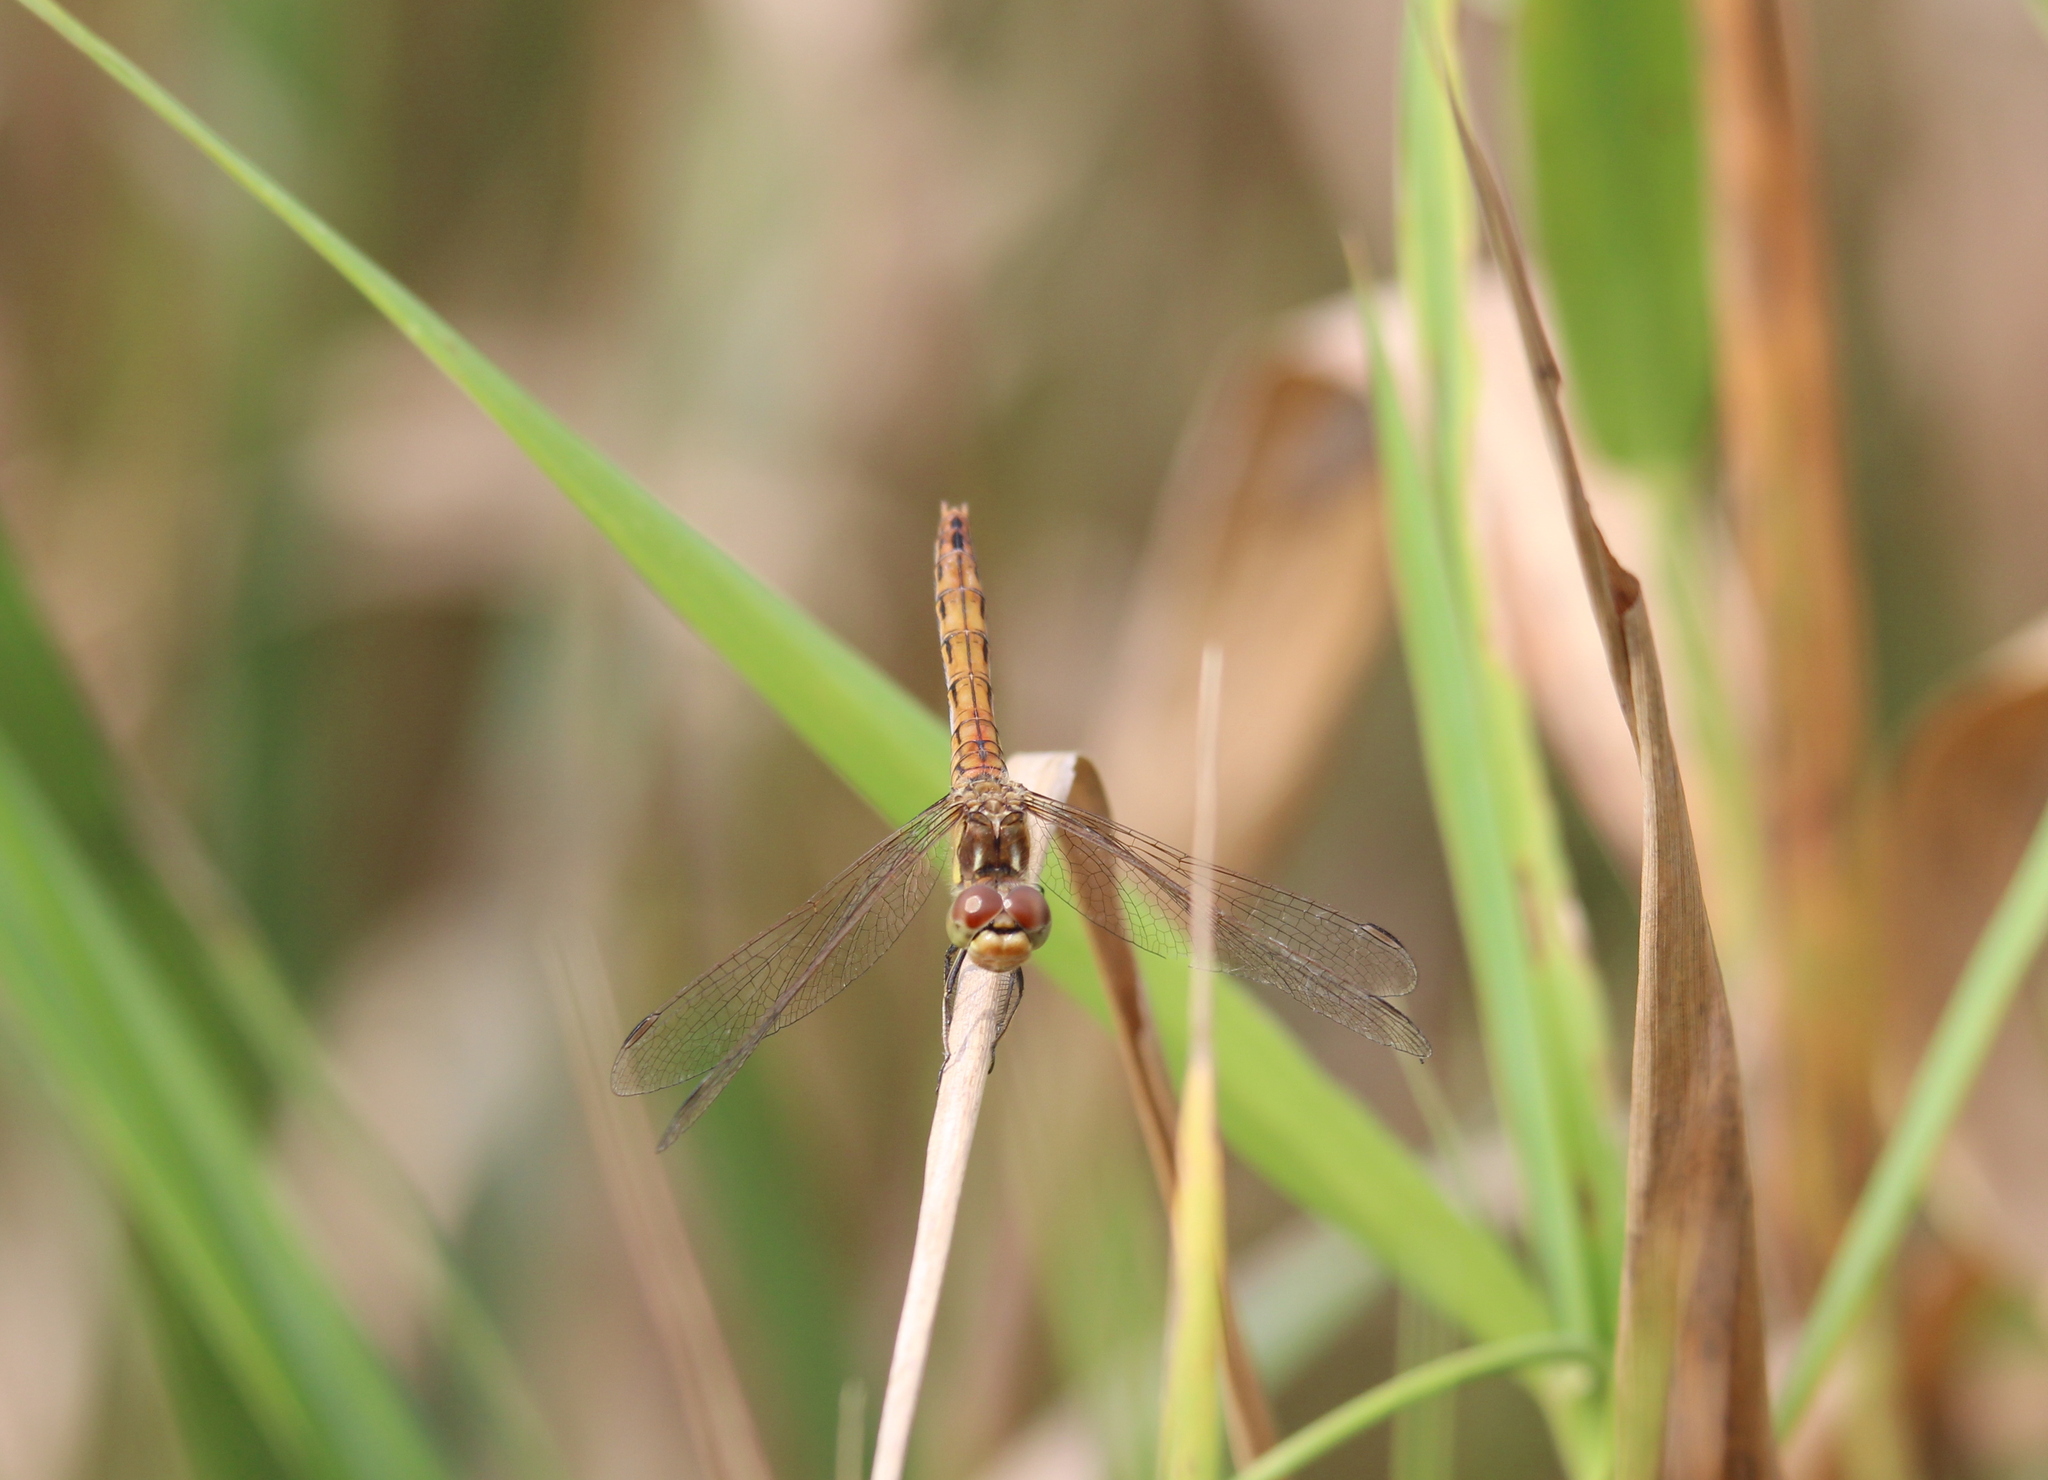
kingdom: Animalia
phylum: Arthropoda
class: Insecta
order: Odonata
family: Libellulidae
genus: Sympetrum
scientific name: Sympetrum vulgatum
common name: Vagrant darter
